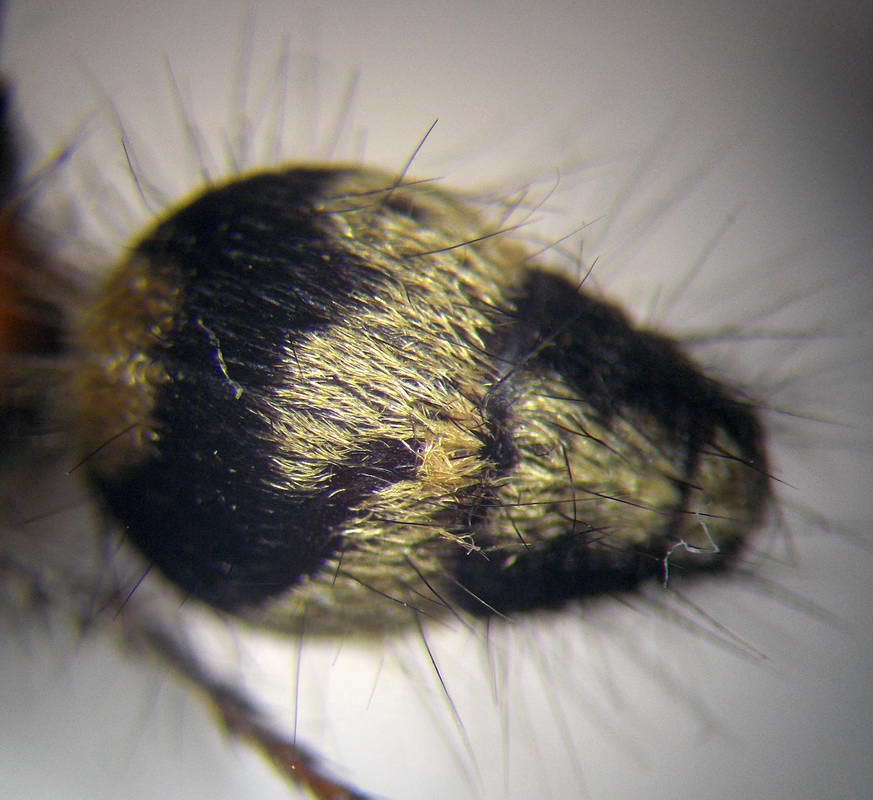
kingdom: Animalia
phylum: Arthropoda
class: Insecta
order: Hymenoptera
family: Mutillidae
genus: Dasylabris
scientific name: Dasylabris regalis
